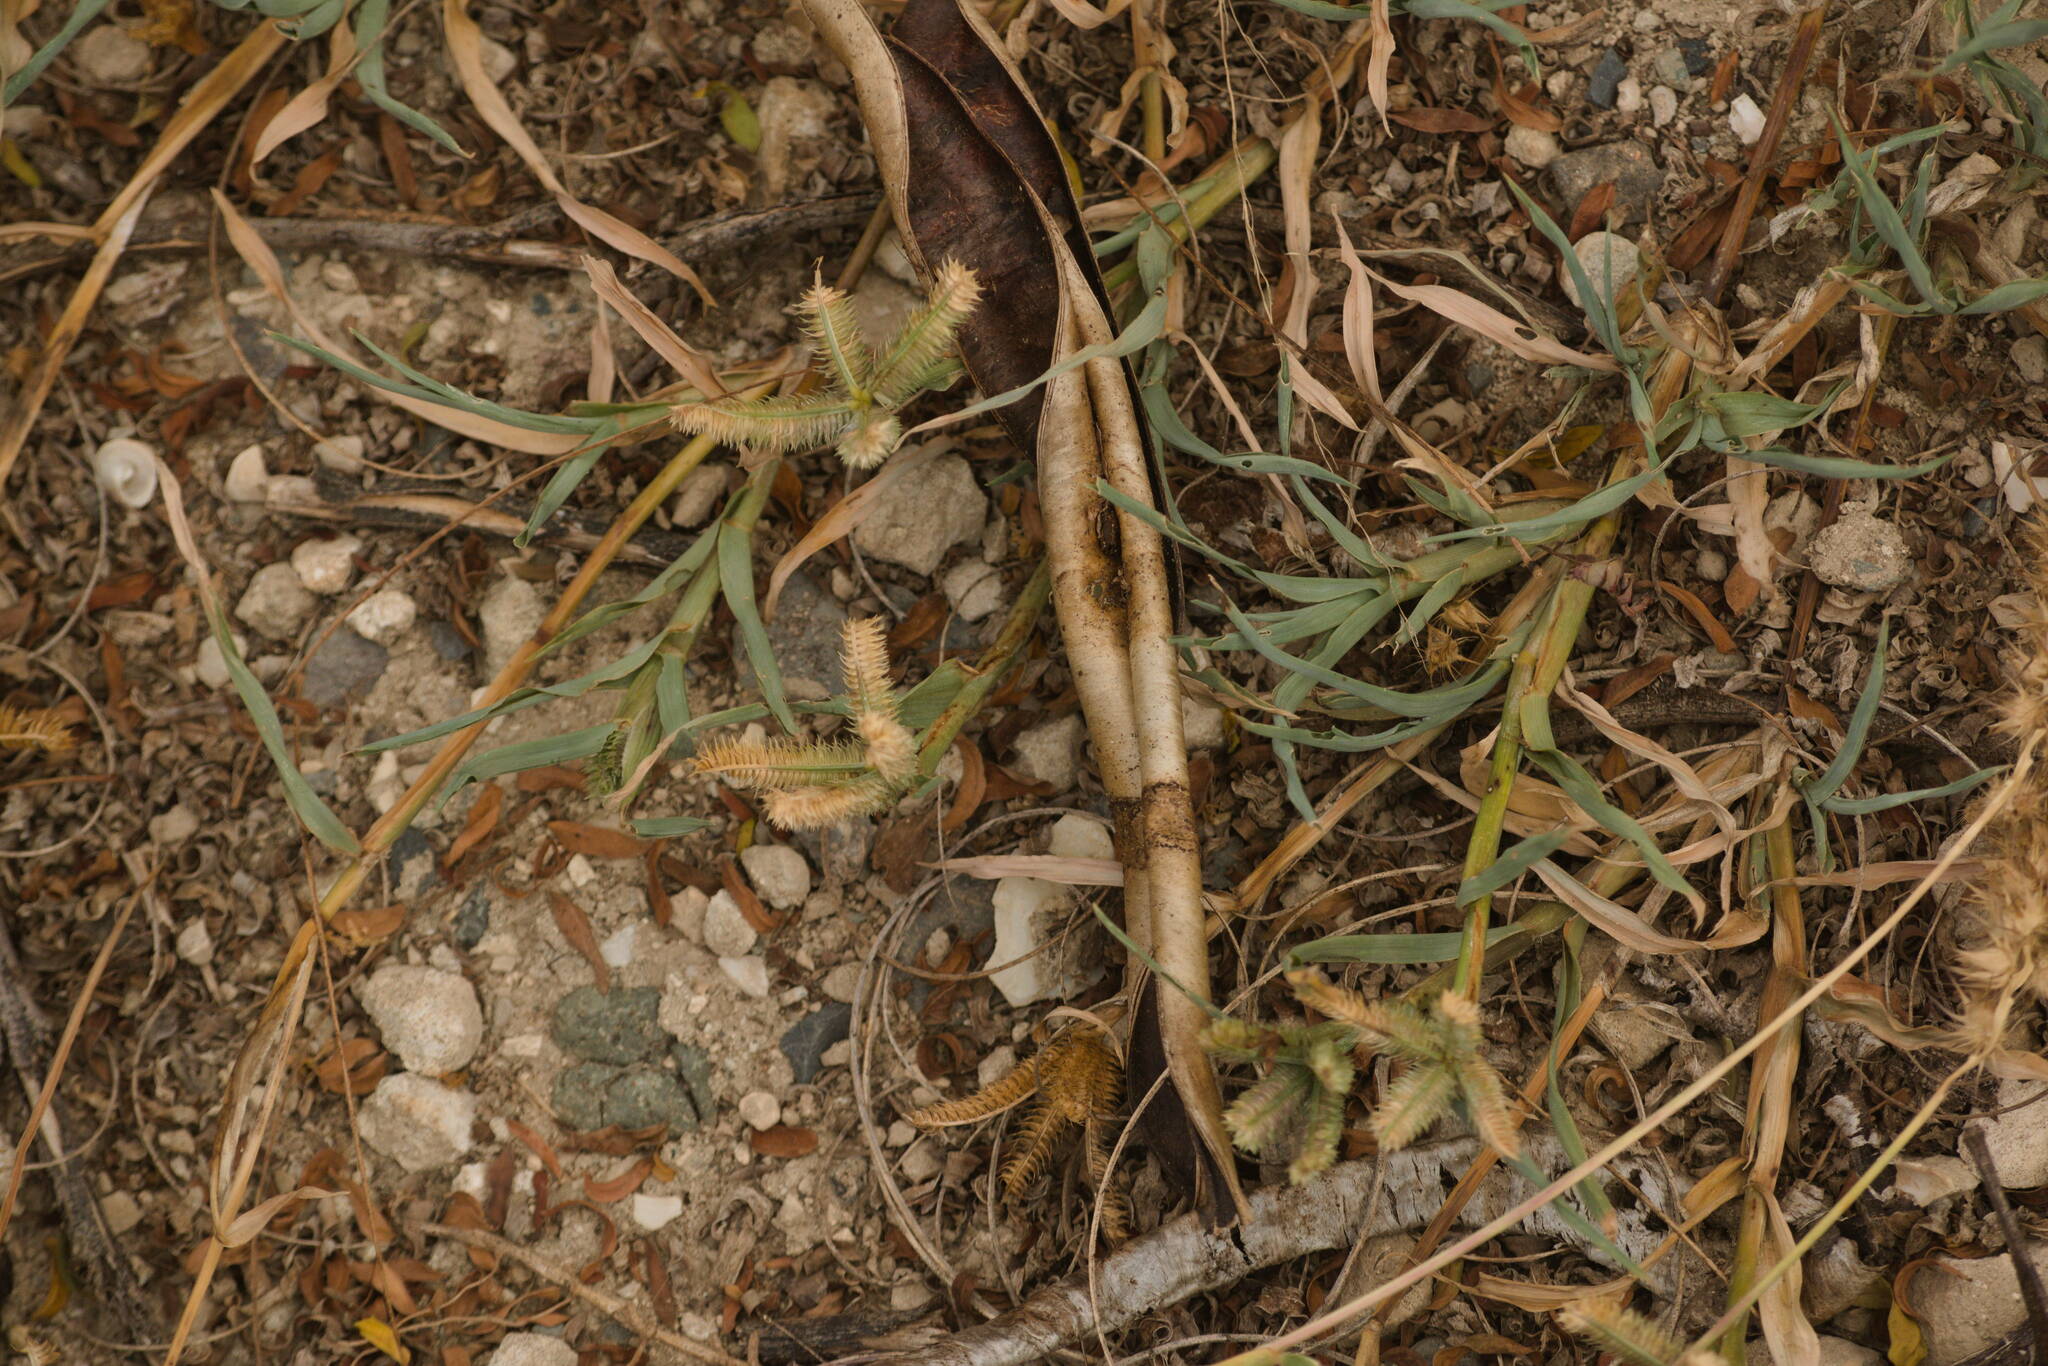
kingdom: Plantae
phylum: Tracheophyta
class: Liliopsida
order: Poales
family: Poaceae
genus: Dactyloctenium
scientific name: Dactyloctenium aegyptium
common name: Egyptian grass
